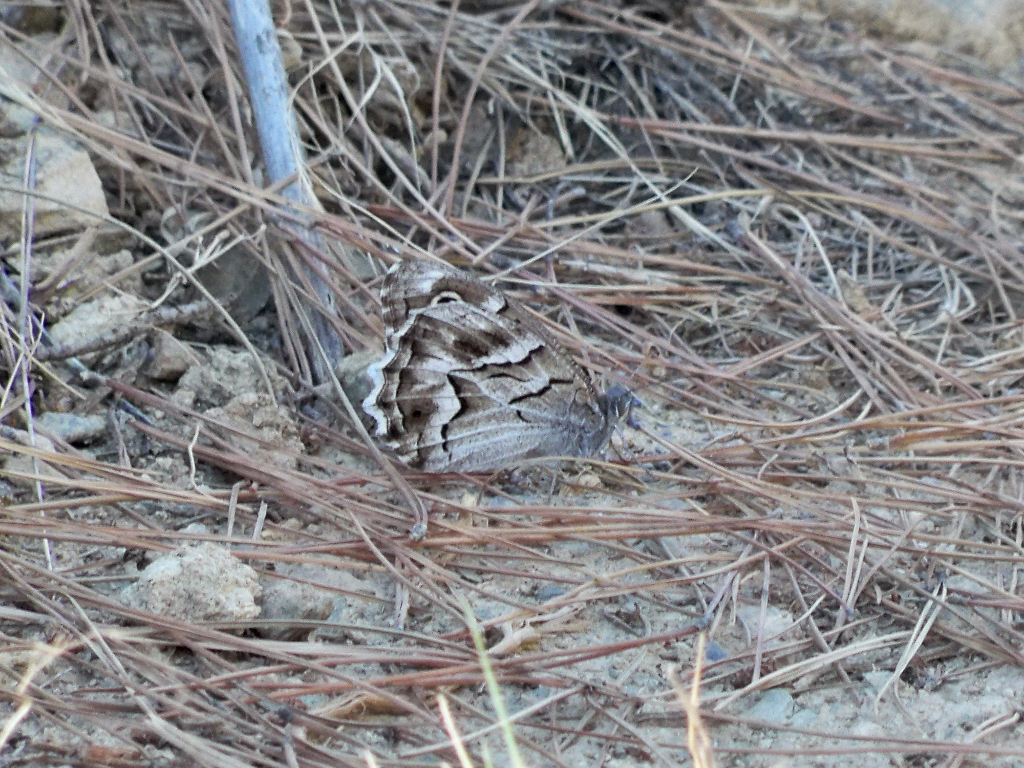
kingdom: Animalia
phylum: Arthropoda
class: Insecta
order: Lepidoptera
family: Nymphalidae
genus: Hipparchia
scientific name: Hipparchia fidia
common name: Striped grayling
